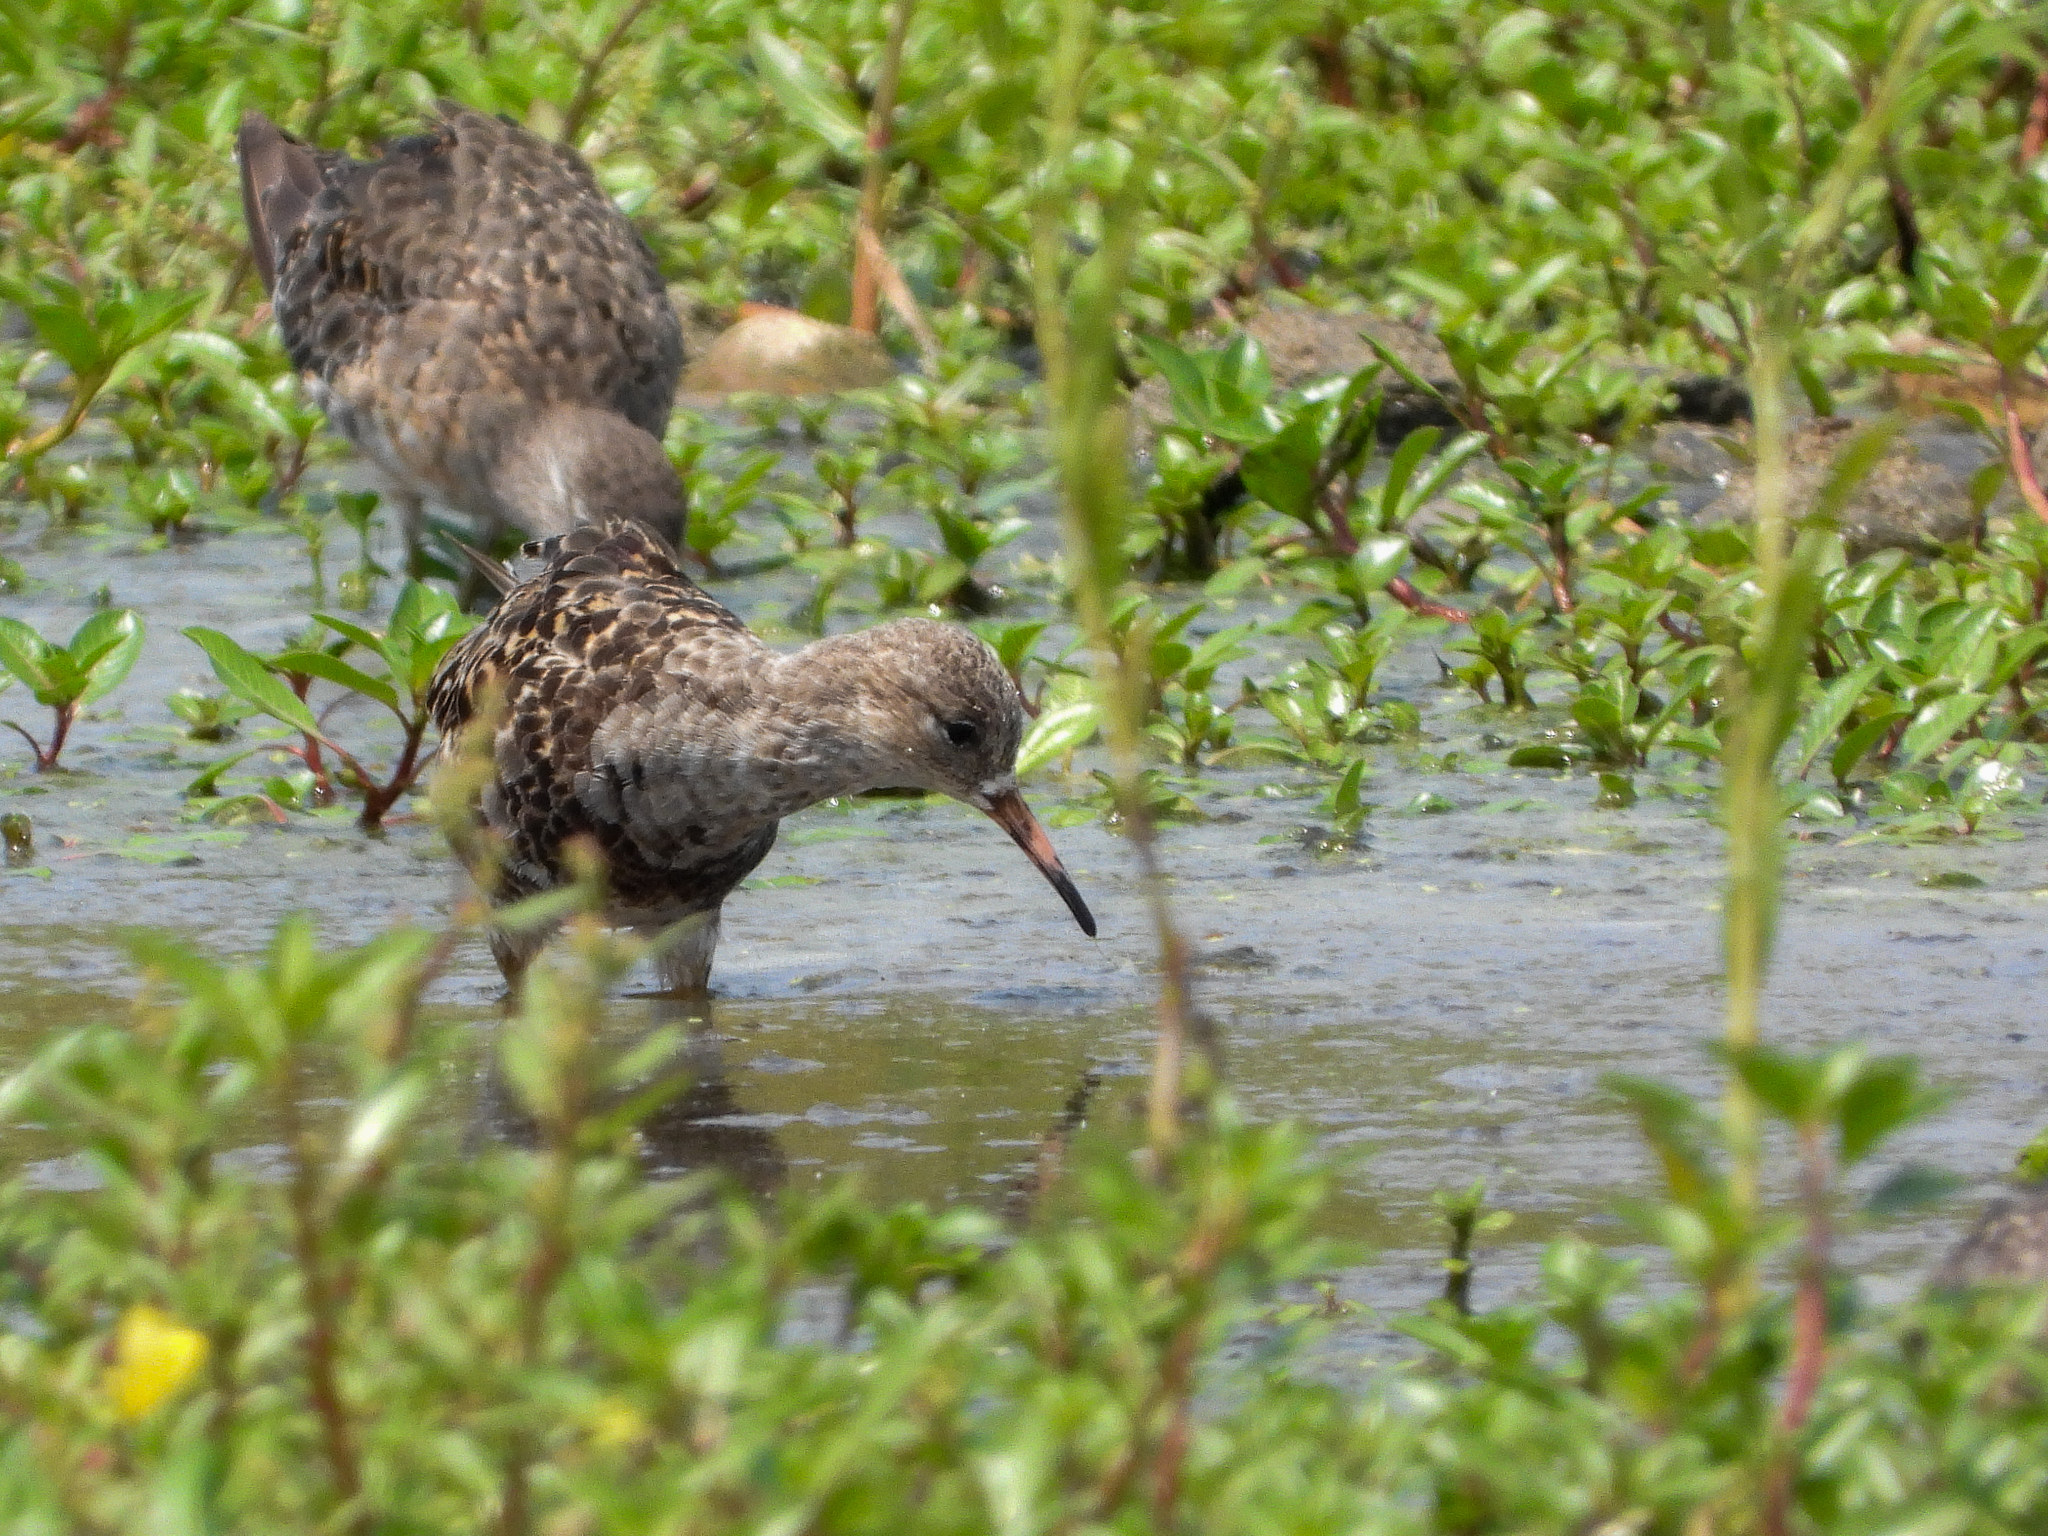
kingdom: Animalia
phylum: Chordata
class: Aves
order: Charadriiformes
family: Scolopacidae
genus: Calidris
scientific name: Calidris pugnax
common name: Ruff
